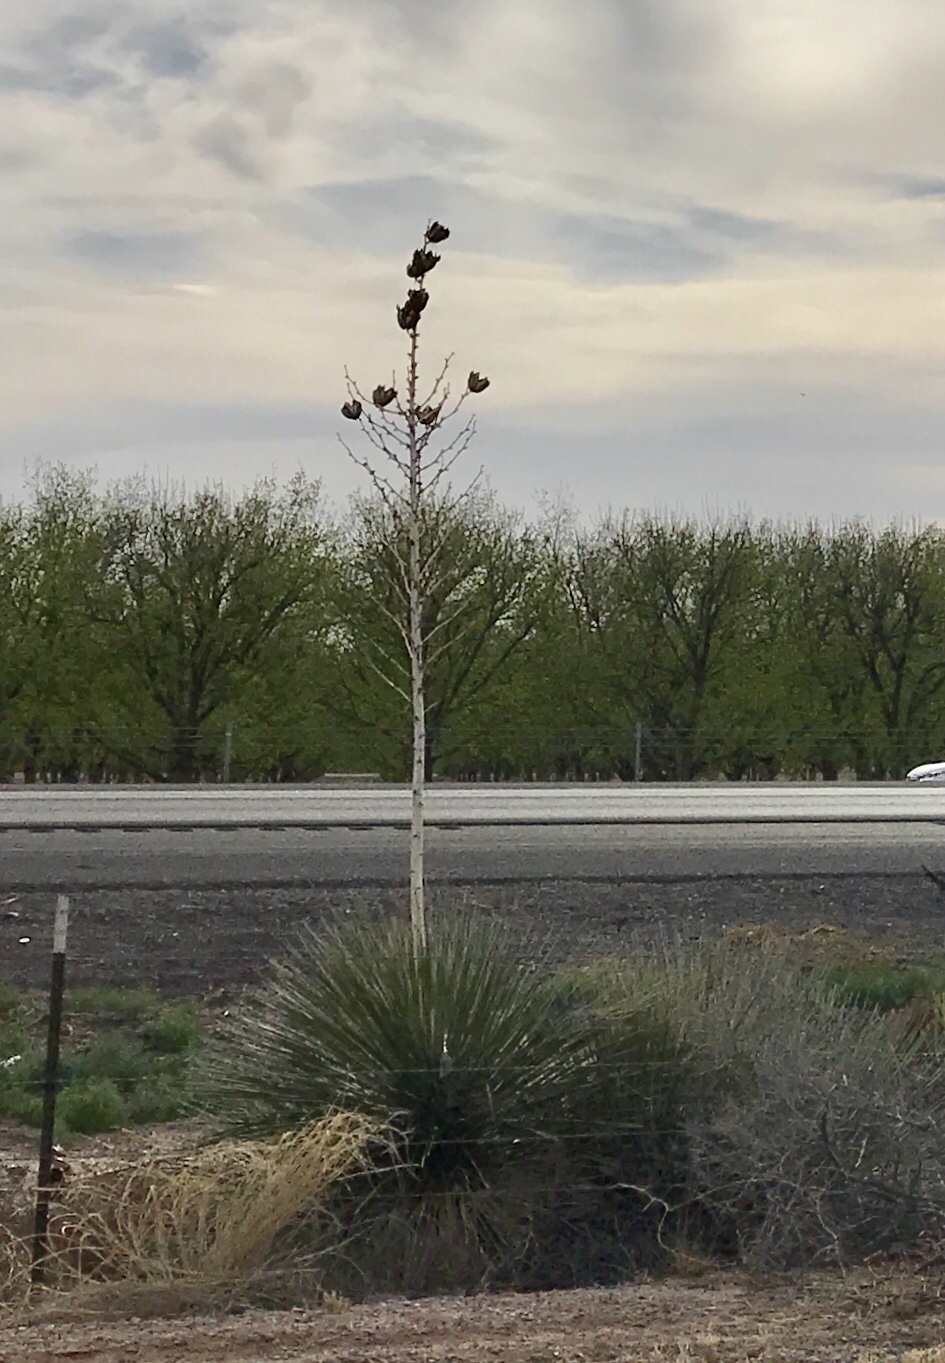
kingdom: Plantae
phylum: Tracheophyta
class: Liliopsida
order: Asparagales
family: Asparagaceae
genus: Yucca
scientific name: Yucca elata
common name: Palmella
